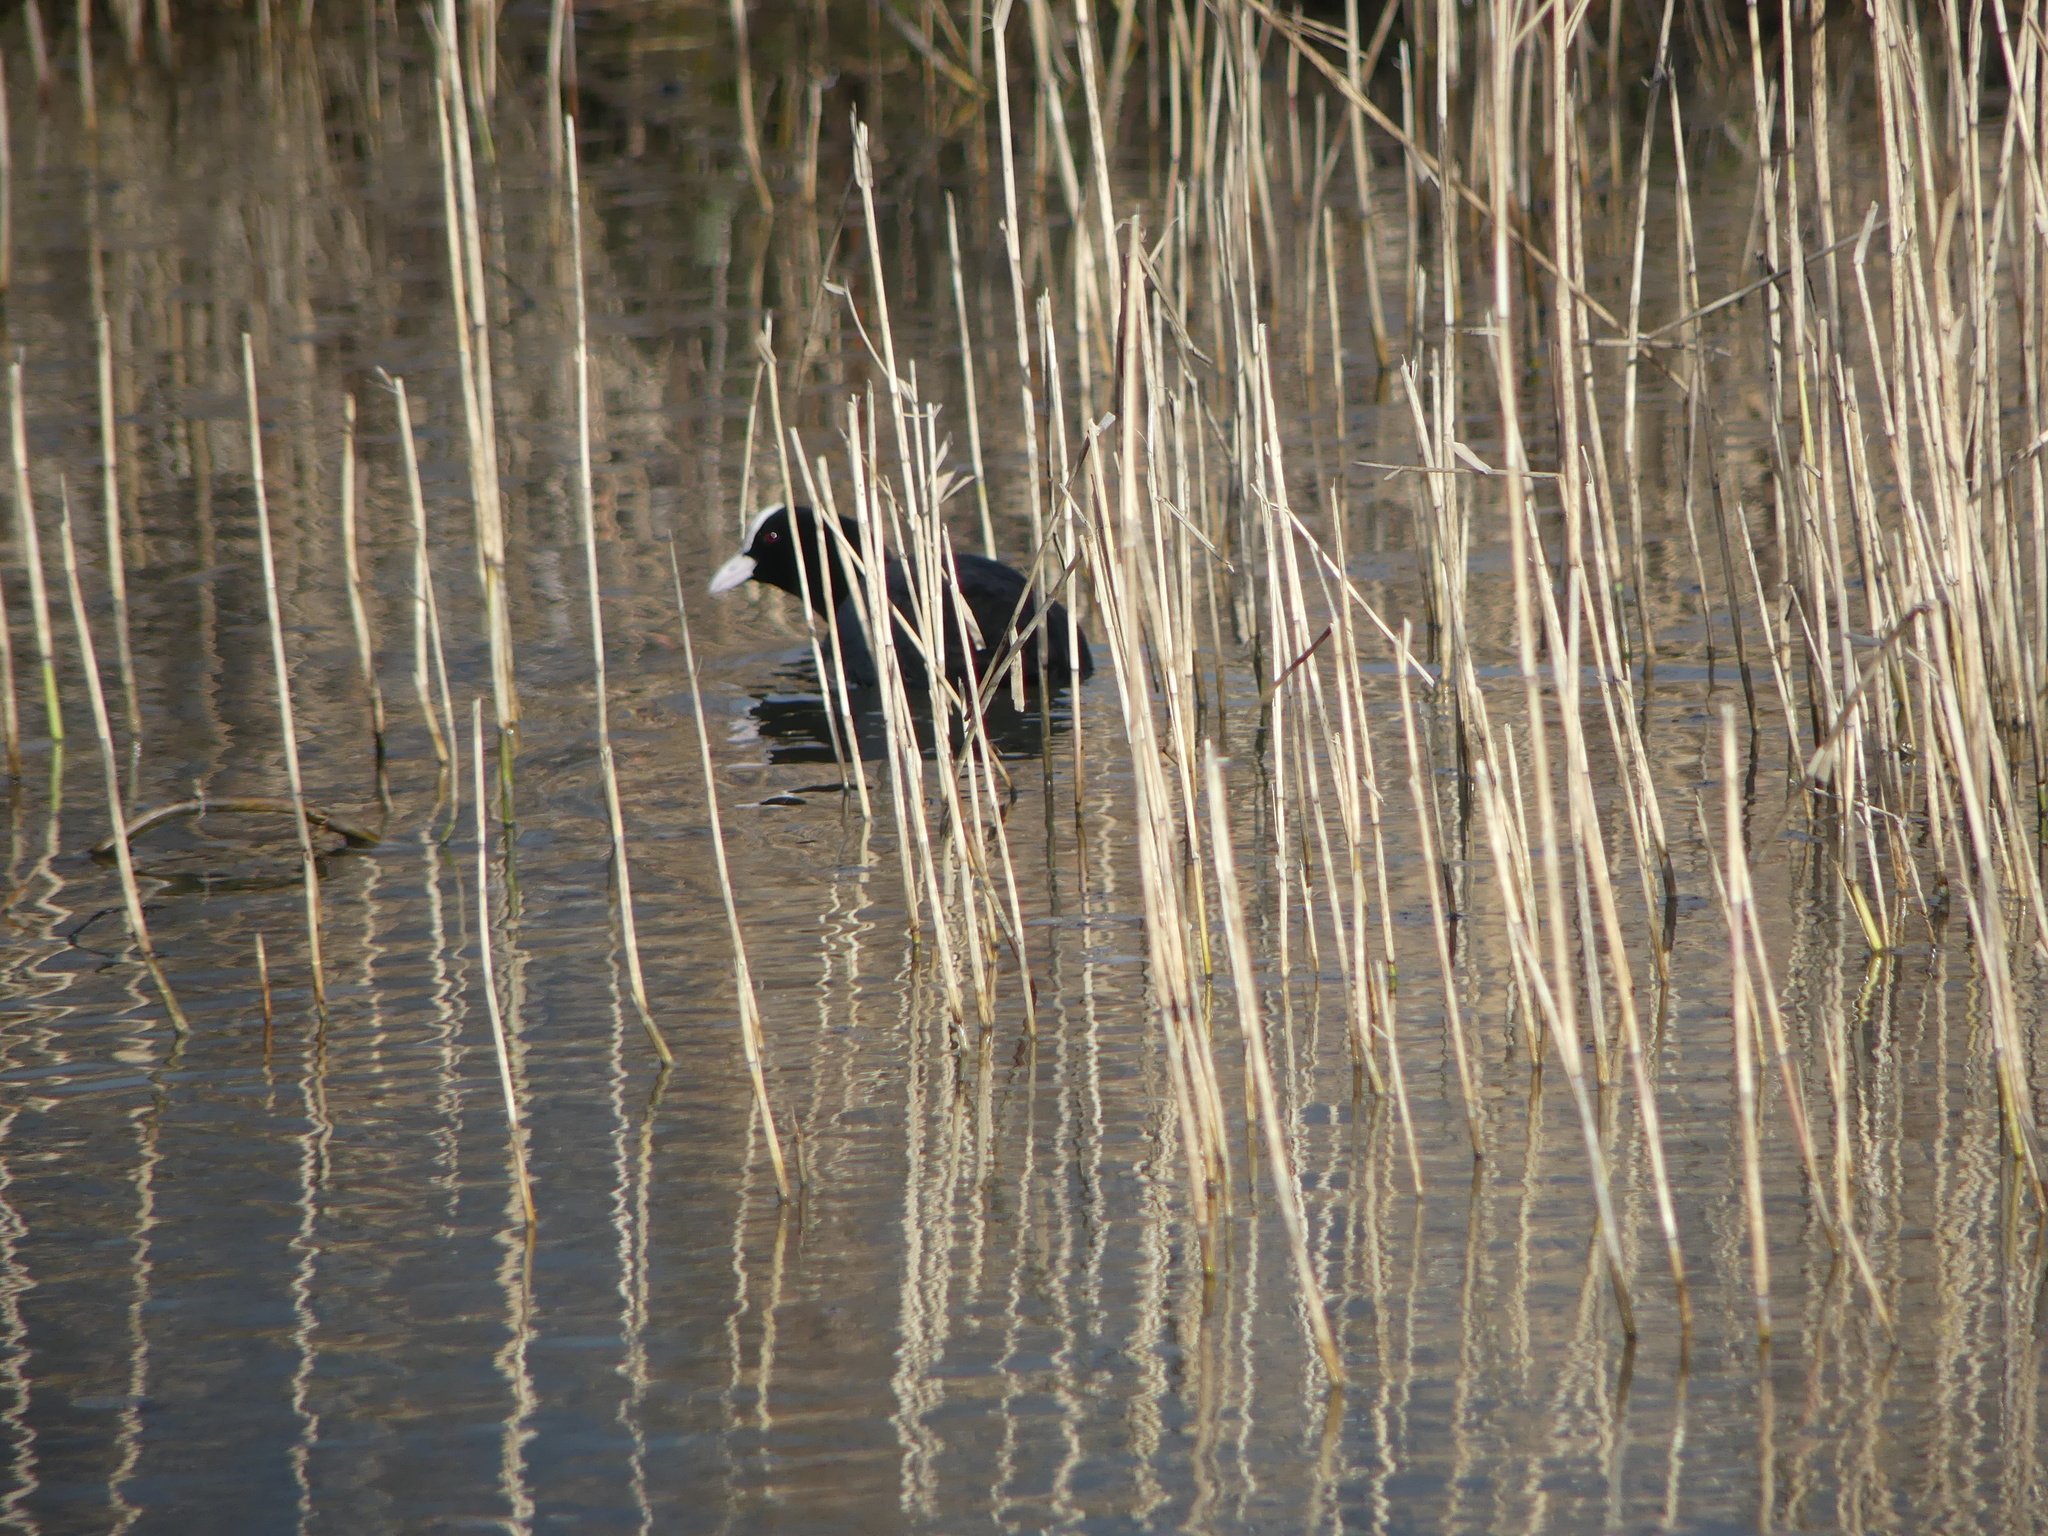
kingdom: Animalia
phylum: Chordata
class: Aves
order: Gruiformes
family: Rallidae
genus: Fulica
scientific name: Fulica atra
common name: Eurasian coot
